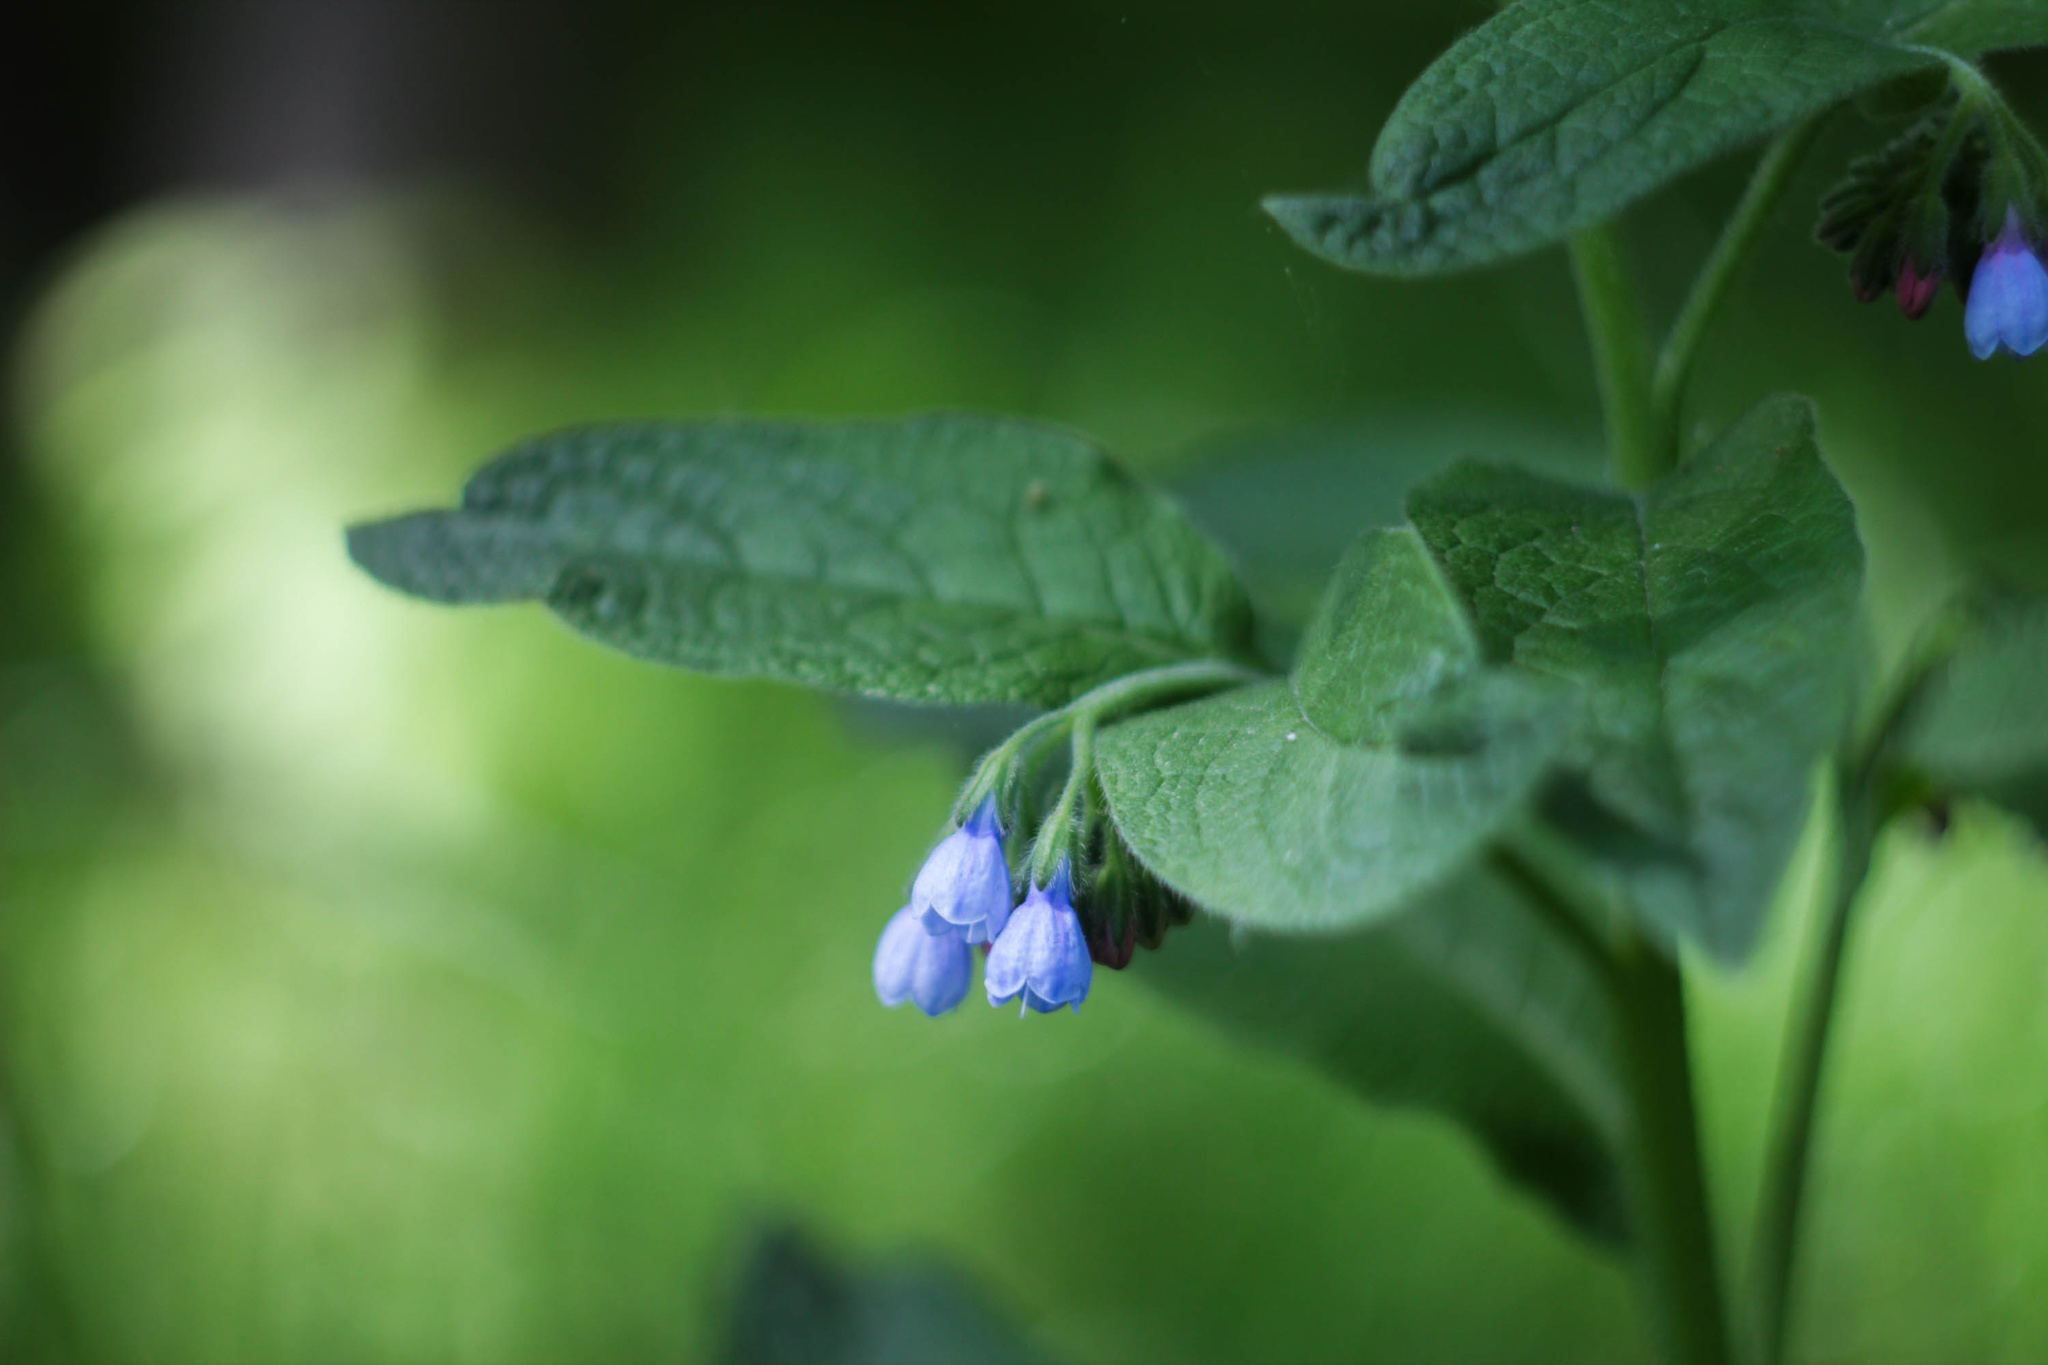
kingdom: Plantae
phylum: Tracheophyta
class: Magnoliopsida
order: Boraginales
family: Boraginaceae
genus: Symphytum
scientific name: Symphytum caucasicum
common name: Caucasian comfrey
